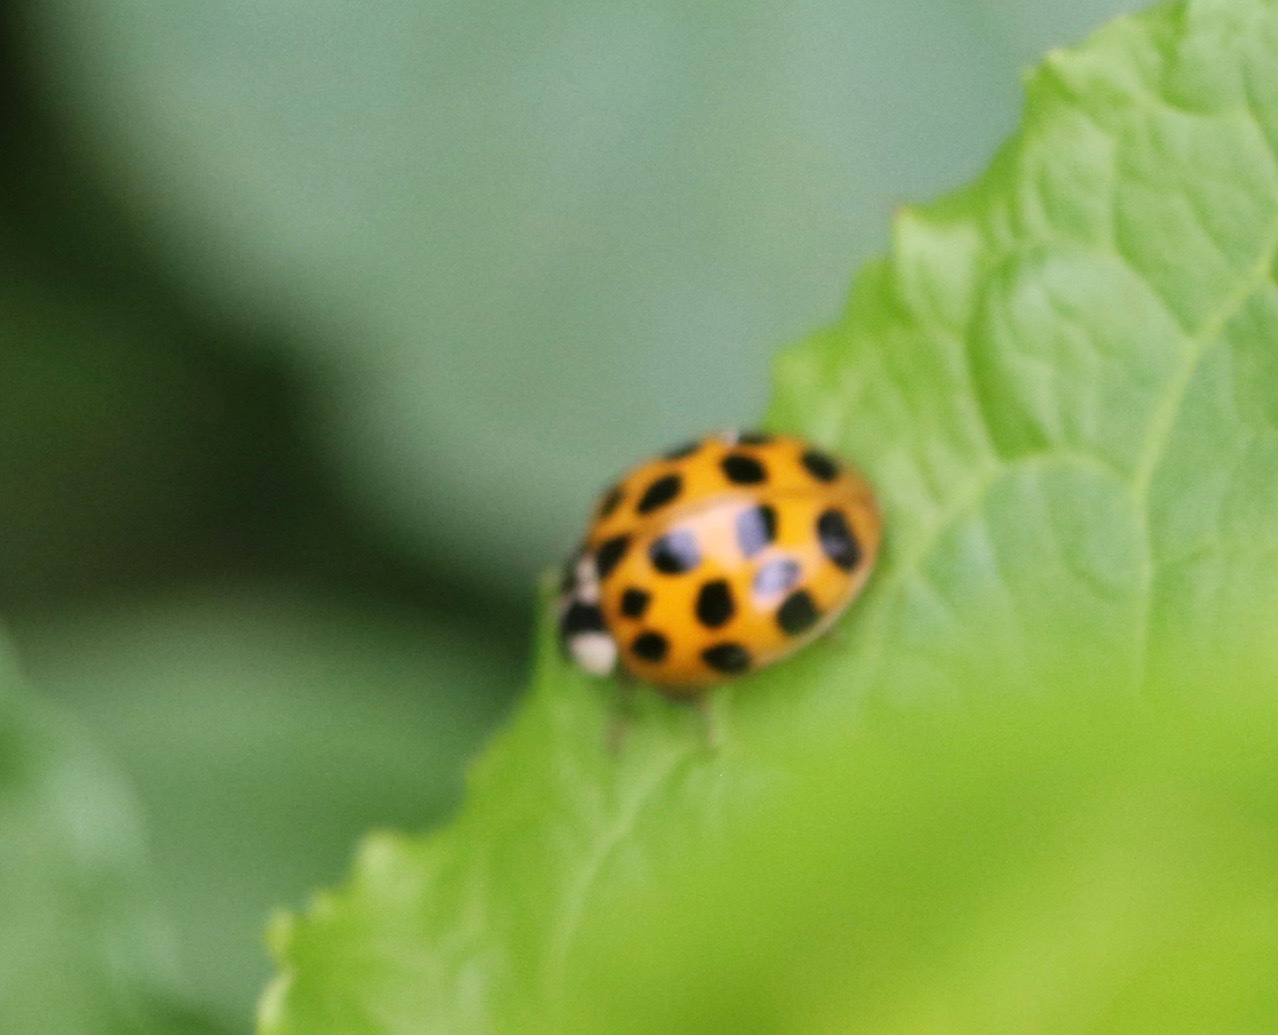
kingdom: Animalia
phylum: Arthropoda
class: Insecta
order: Coleoptera
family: Coccinellidae
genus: Harmonia
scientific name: Harmonia axyridis
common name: Harlequin ladybird
